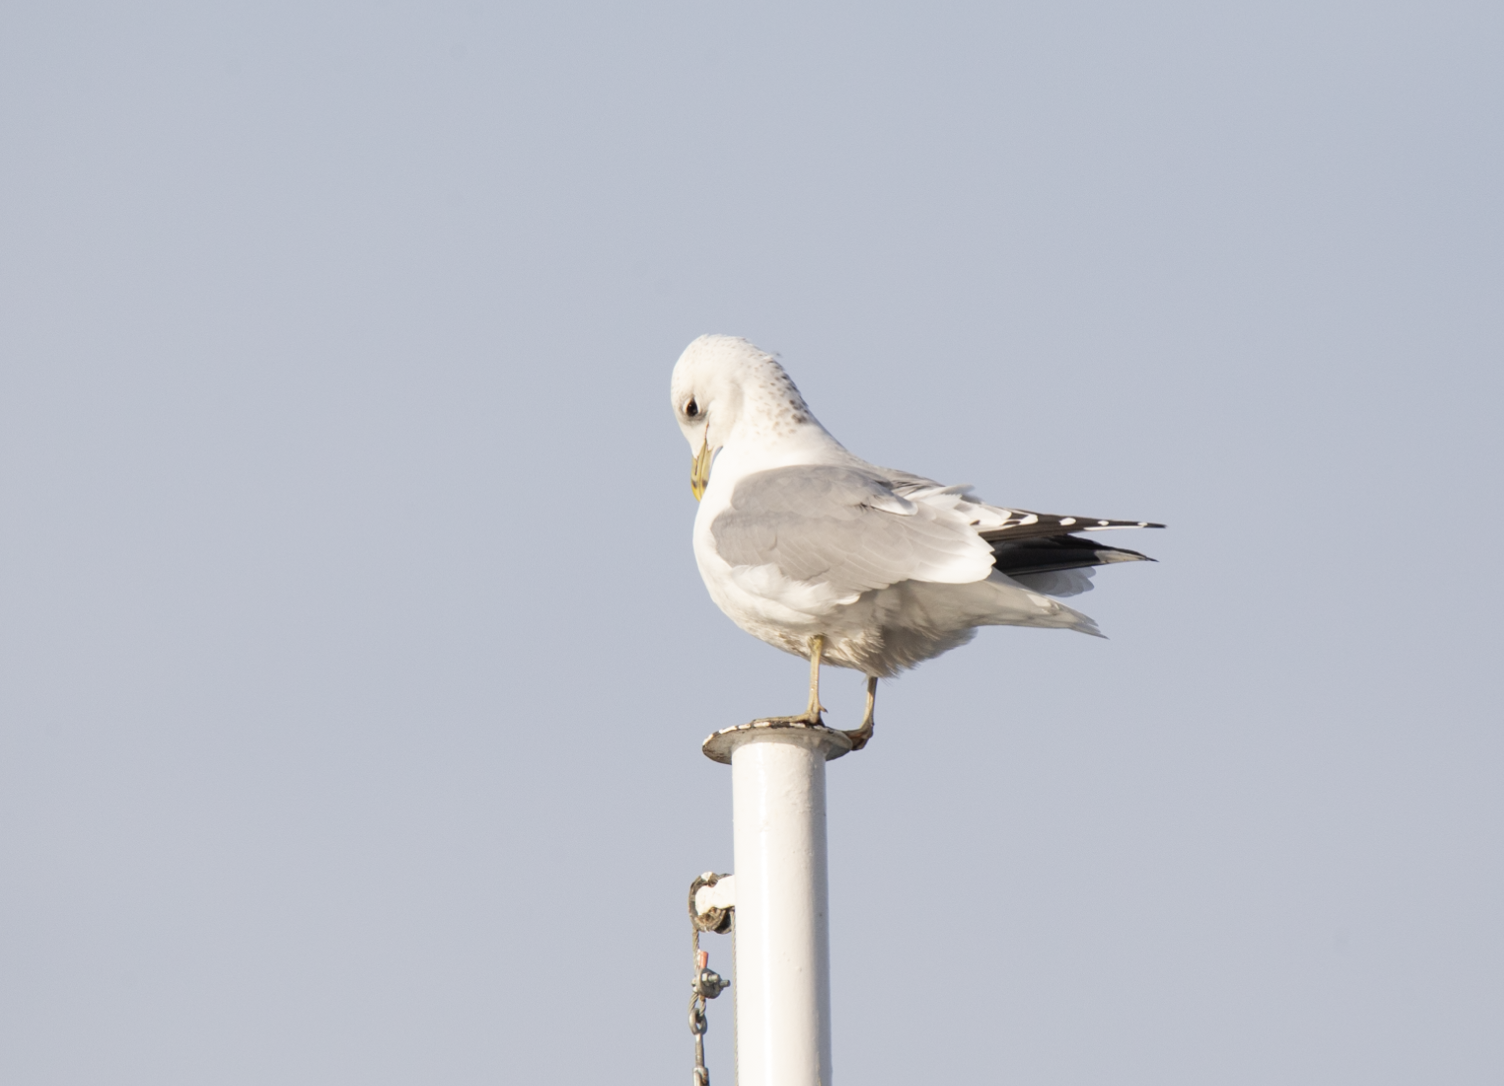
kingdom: Animalia
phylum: Chordata
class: Aves
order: Charadriiformes
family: Laridae
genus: Larus
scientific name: Larus canus
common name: Mew gull
